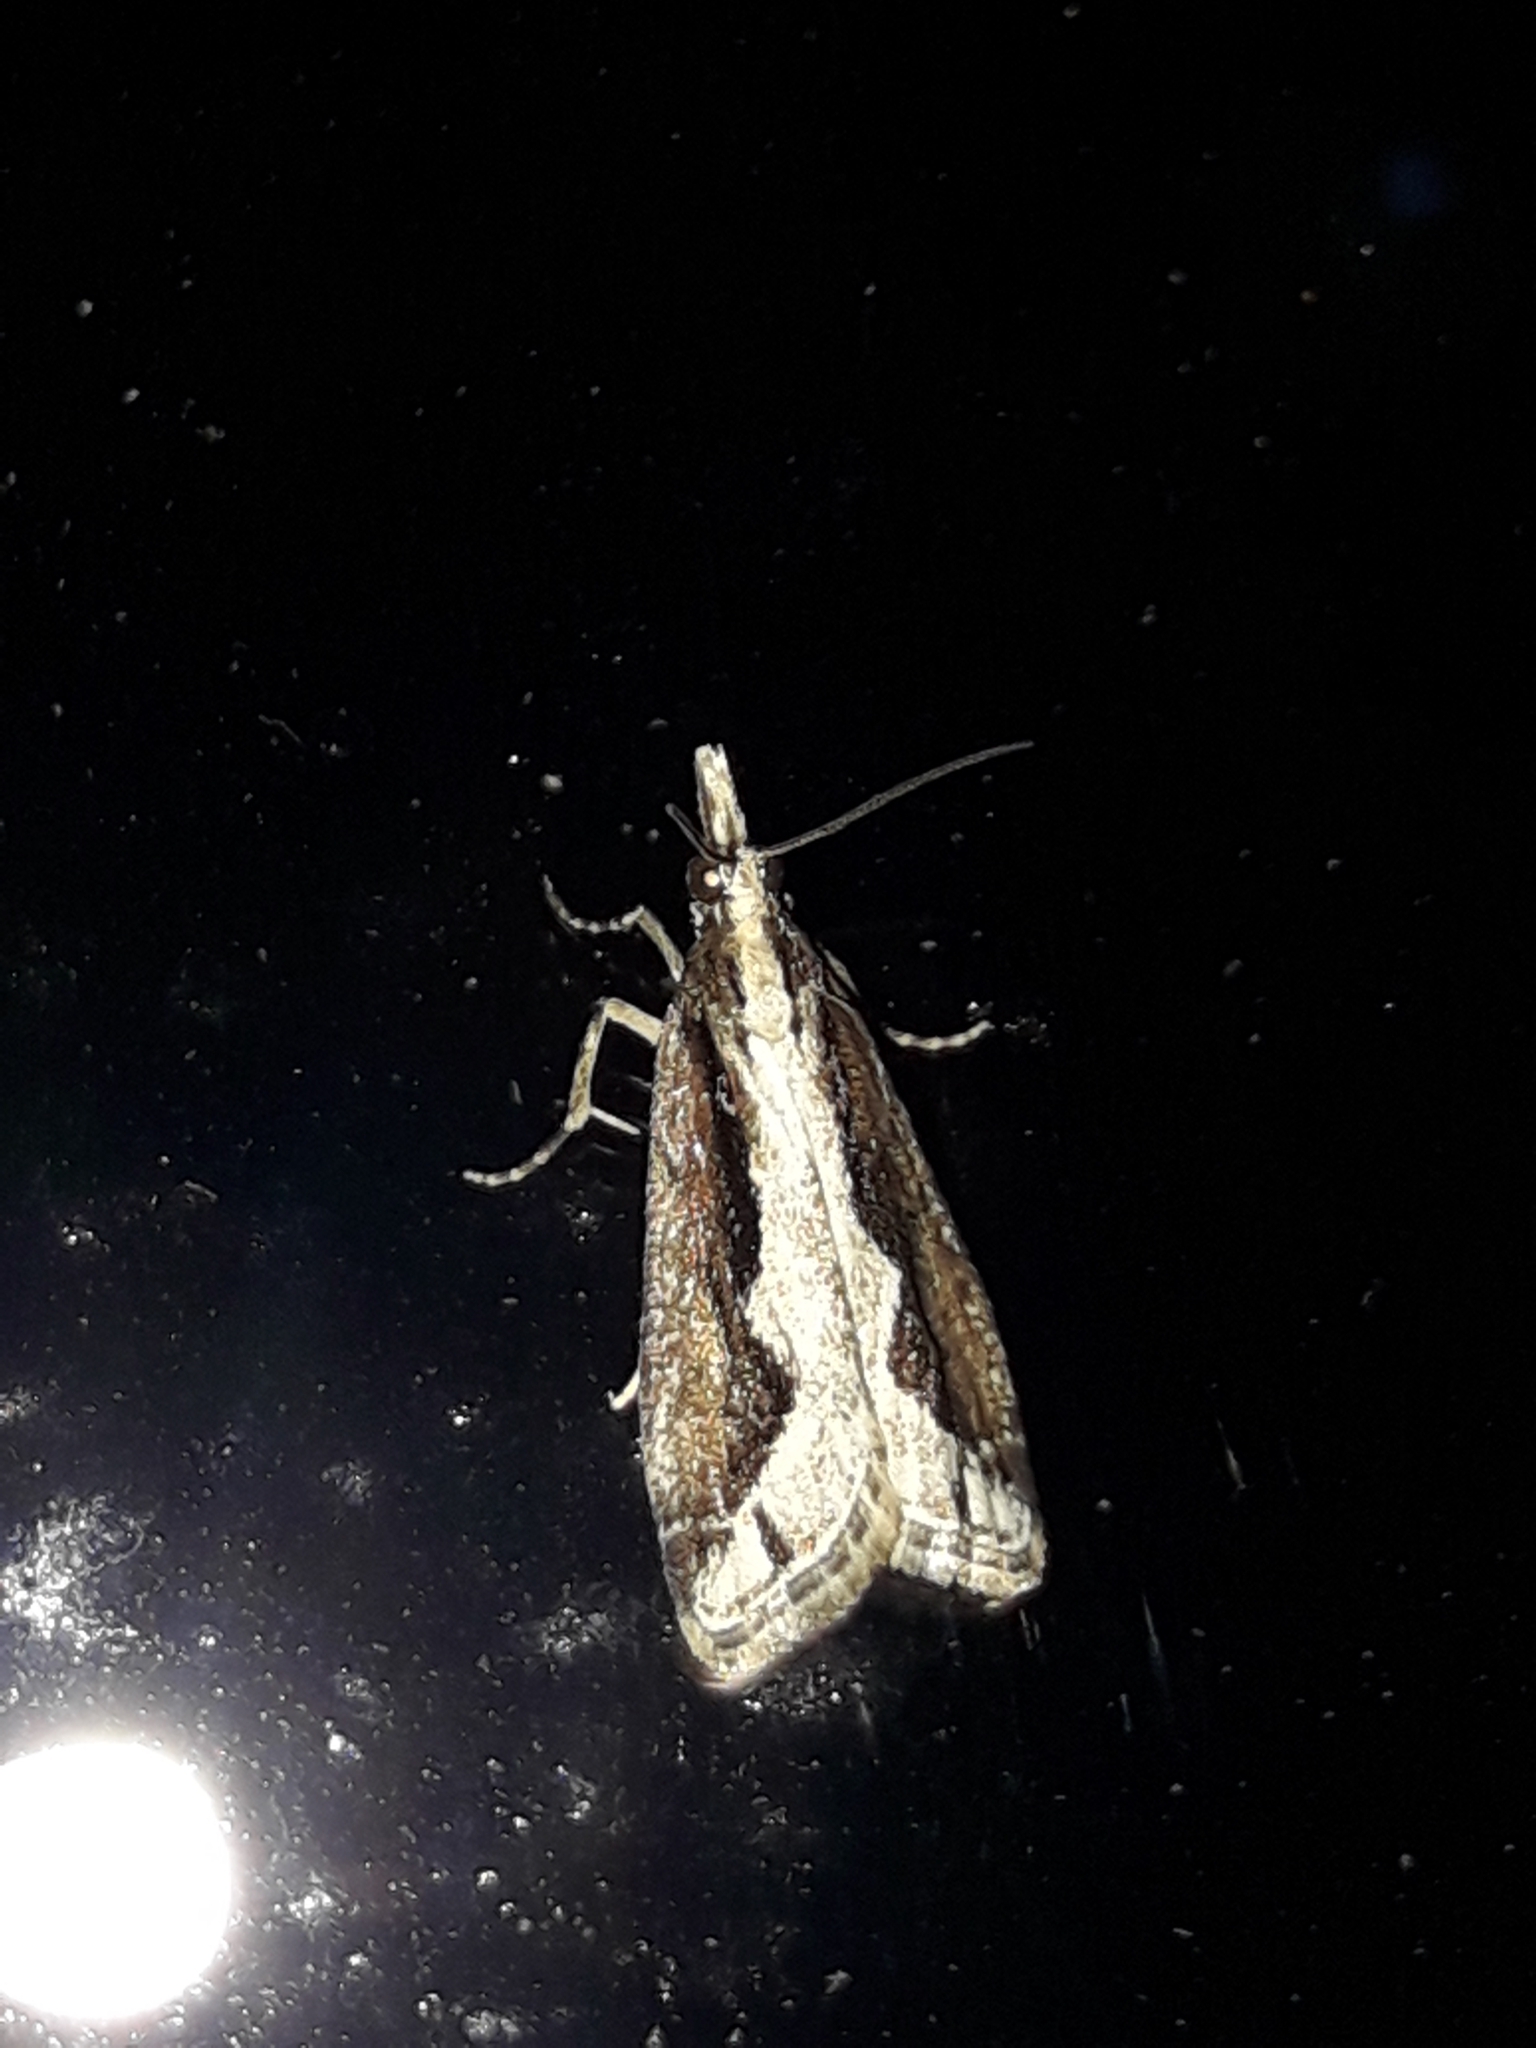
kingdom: Animalia
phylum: Arthropoda
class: Insecta
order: Lepidoptera
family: Crambidae
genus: Eudonia
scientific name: Eudonia steropaea
